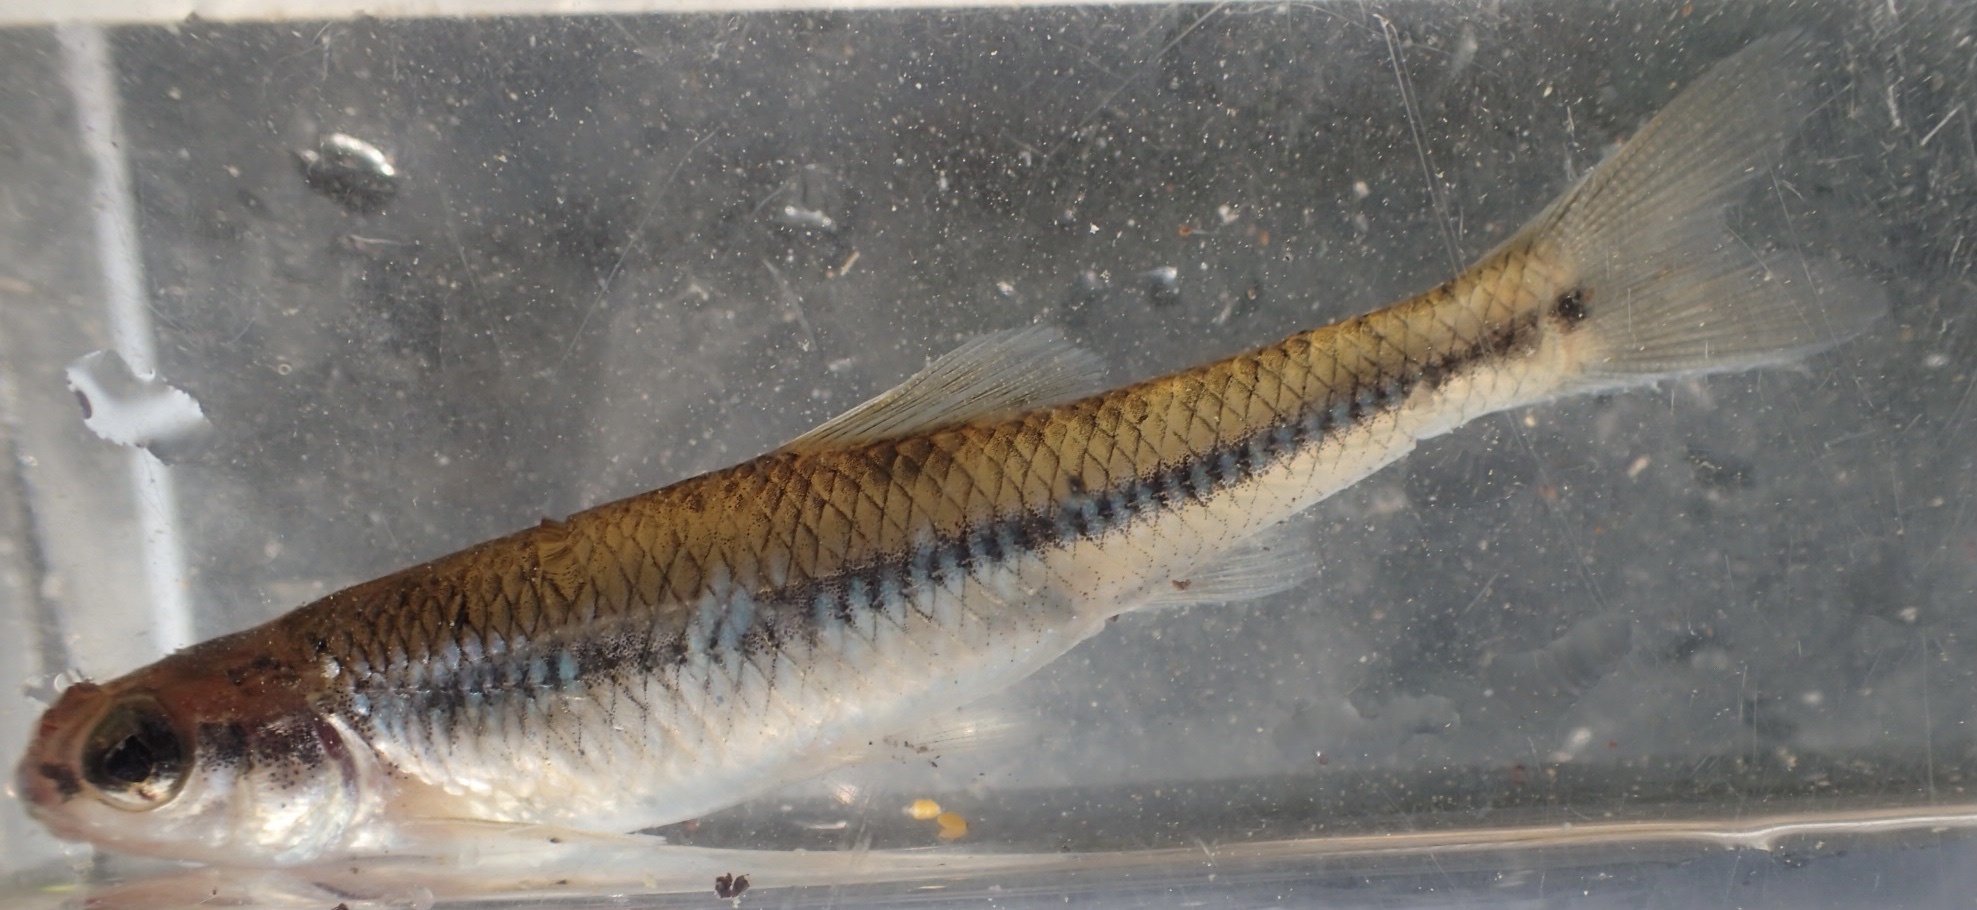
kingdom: Animalia
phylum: Chordata
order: Cypriniformes
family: Cyprinidae
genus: Pimephales
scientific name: Pimephales notatus
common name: Bluntnose minnow
